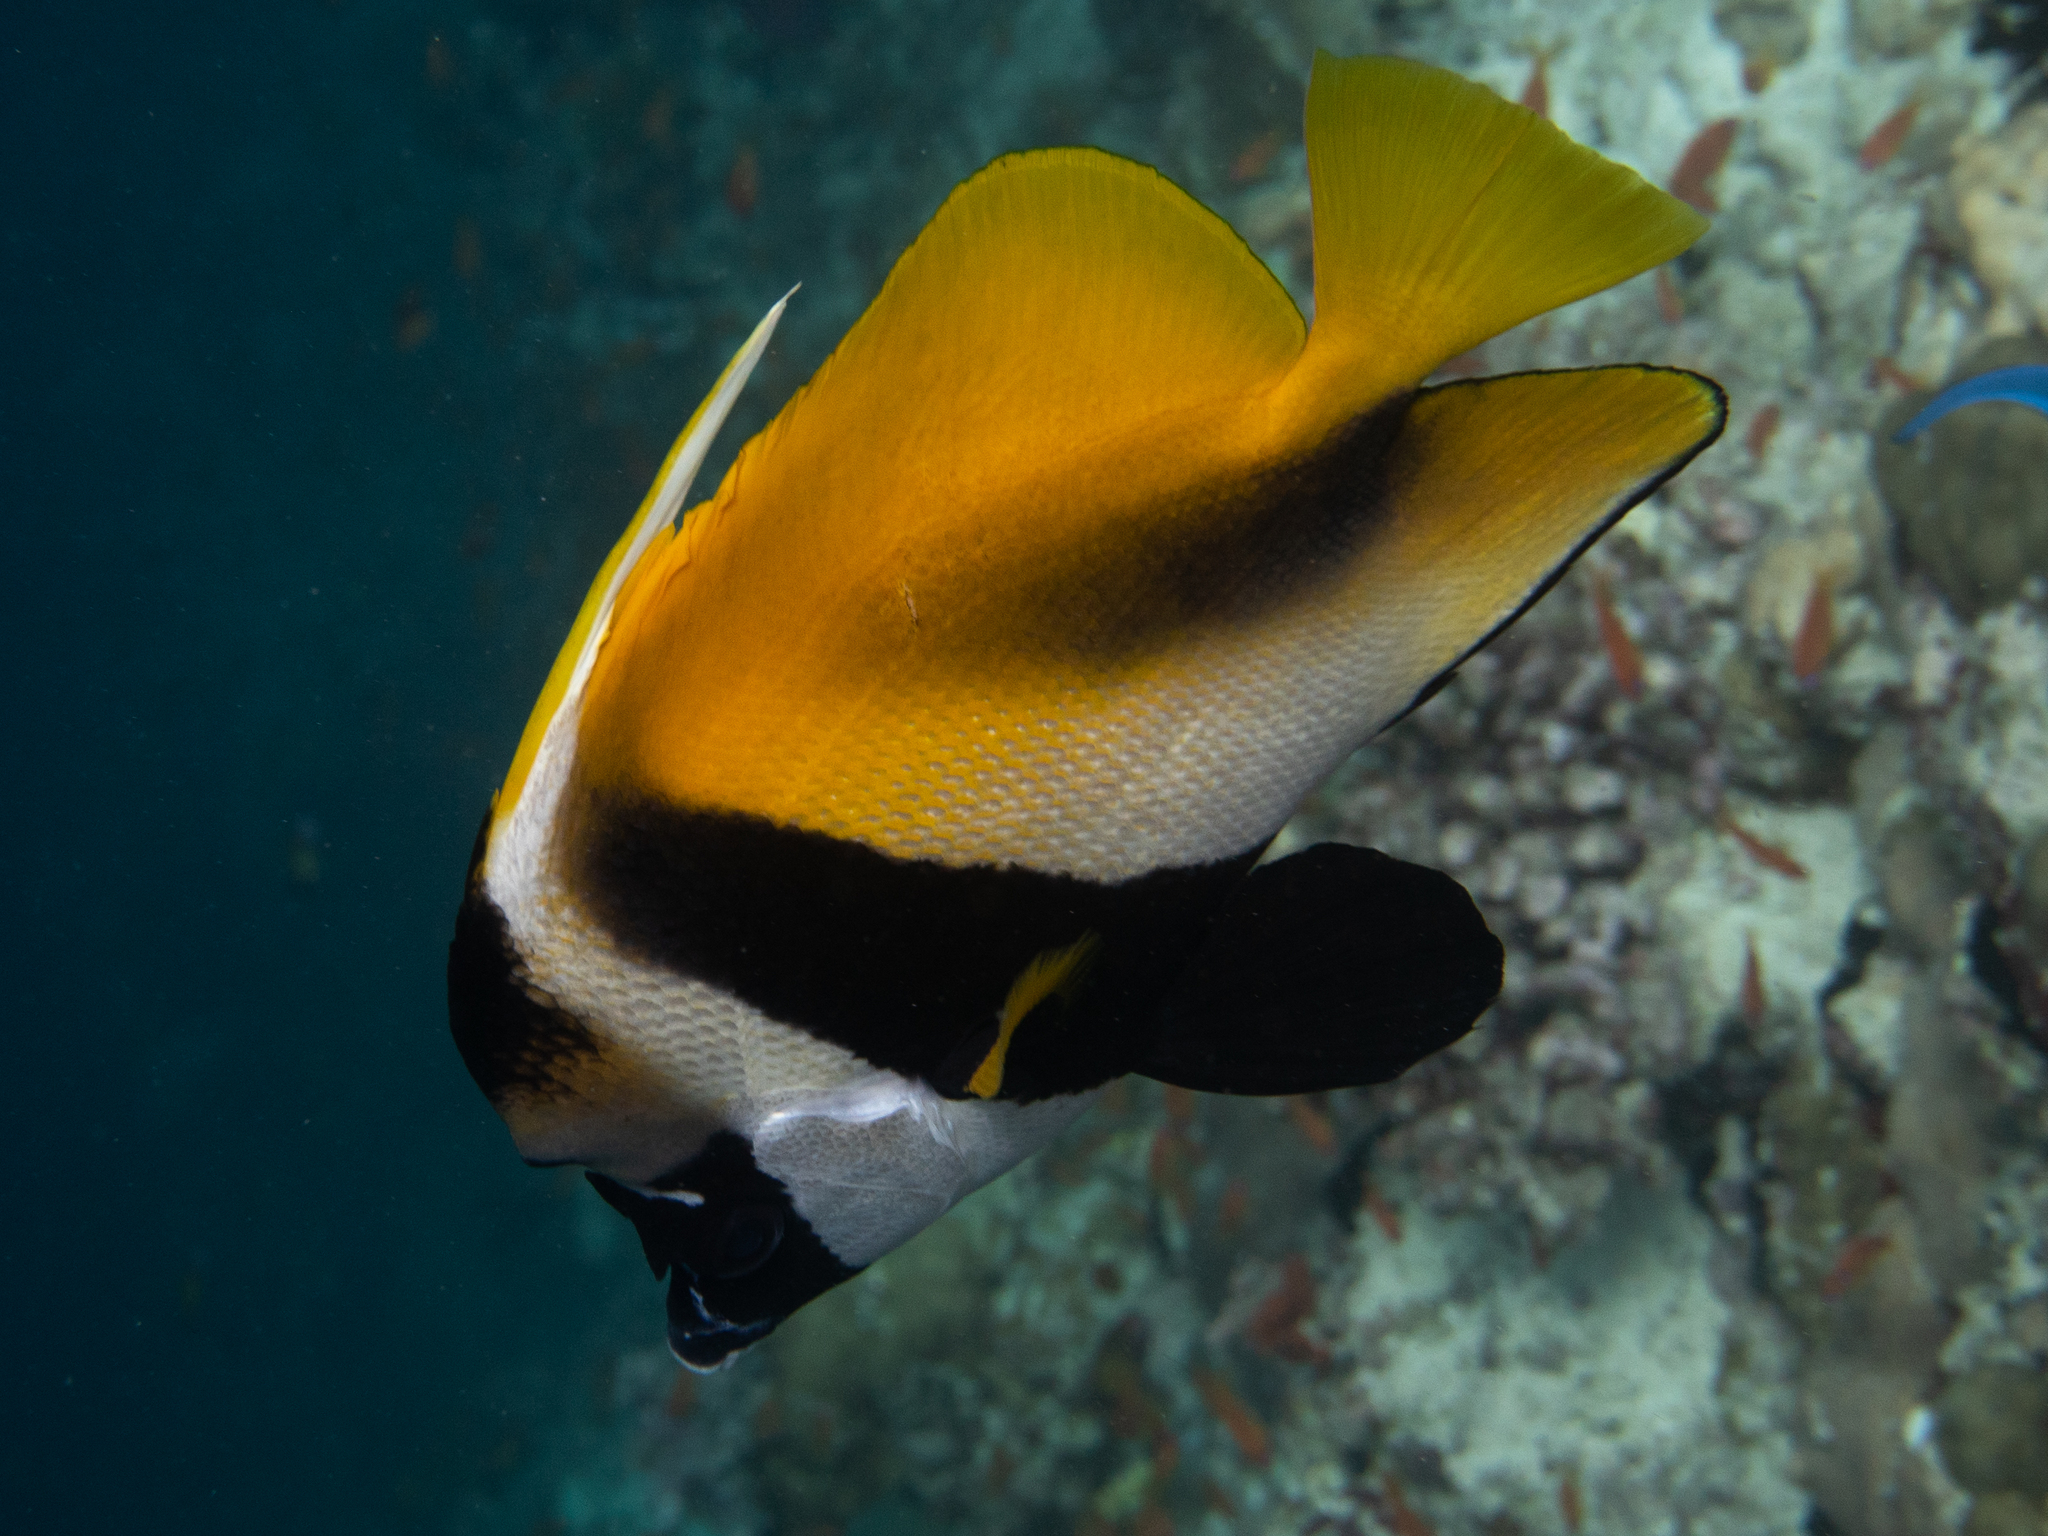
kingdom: Animalia
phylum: Chordata
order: Perciformes
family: Chaetodontidae
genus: Heniochus
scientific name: Heniochus monoceros
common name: Masked bannerfish
